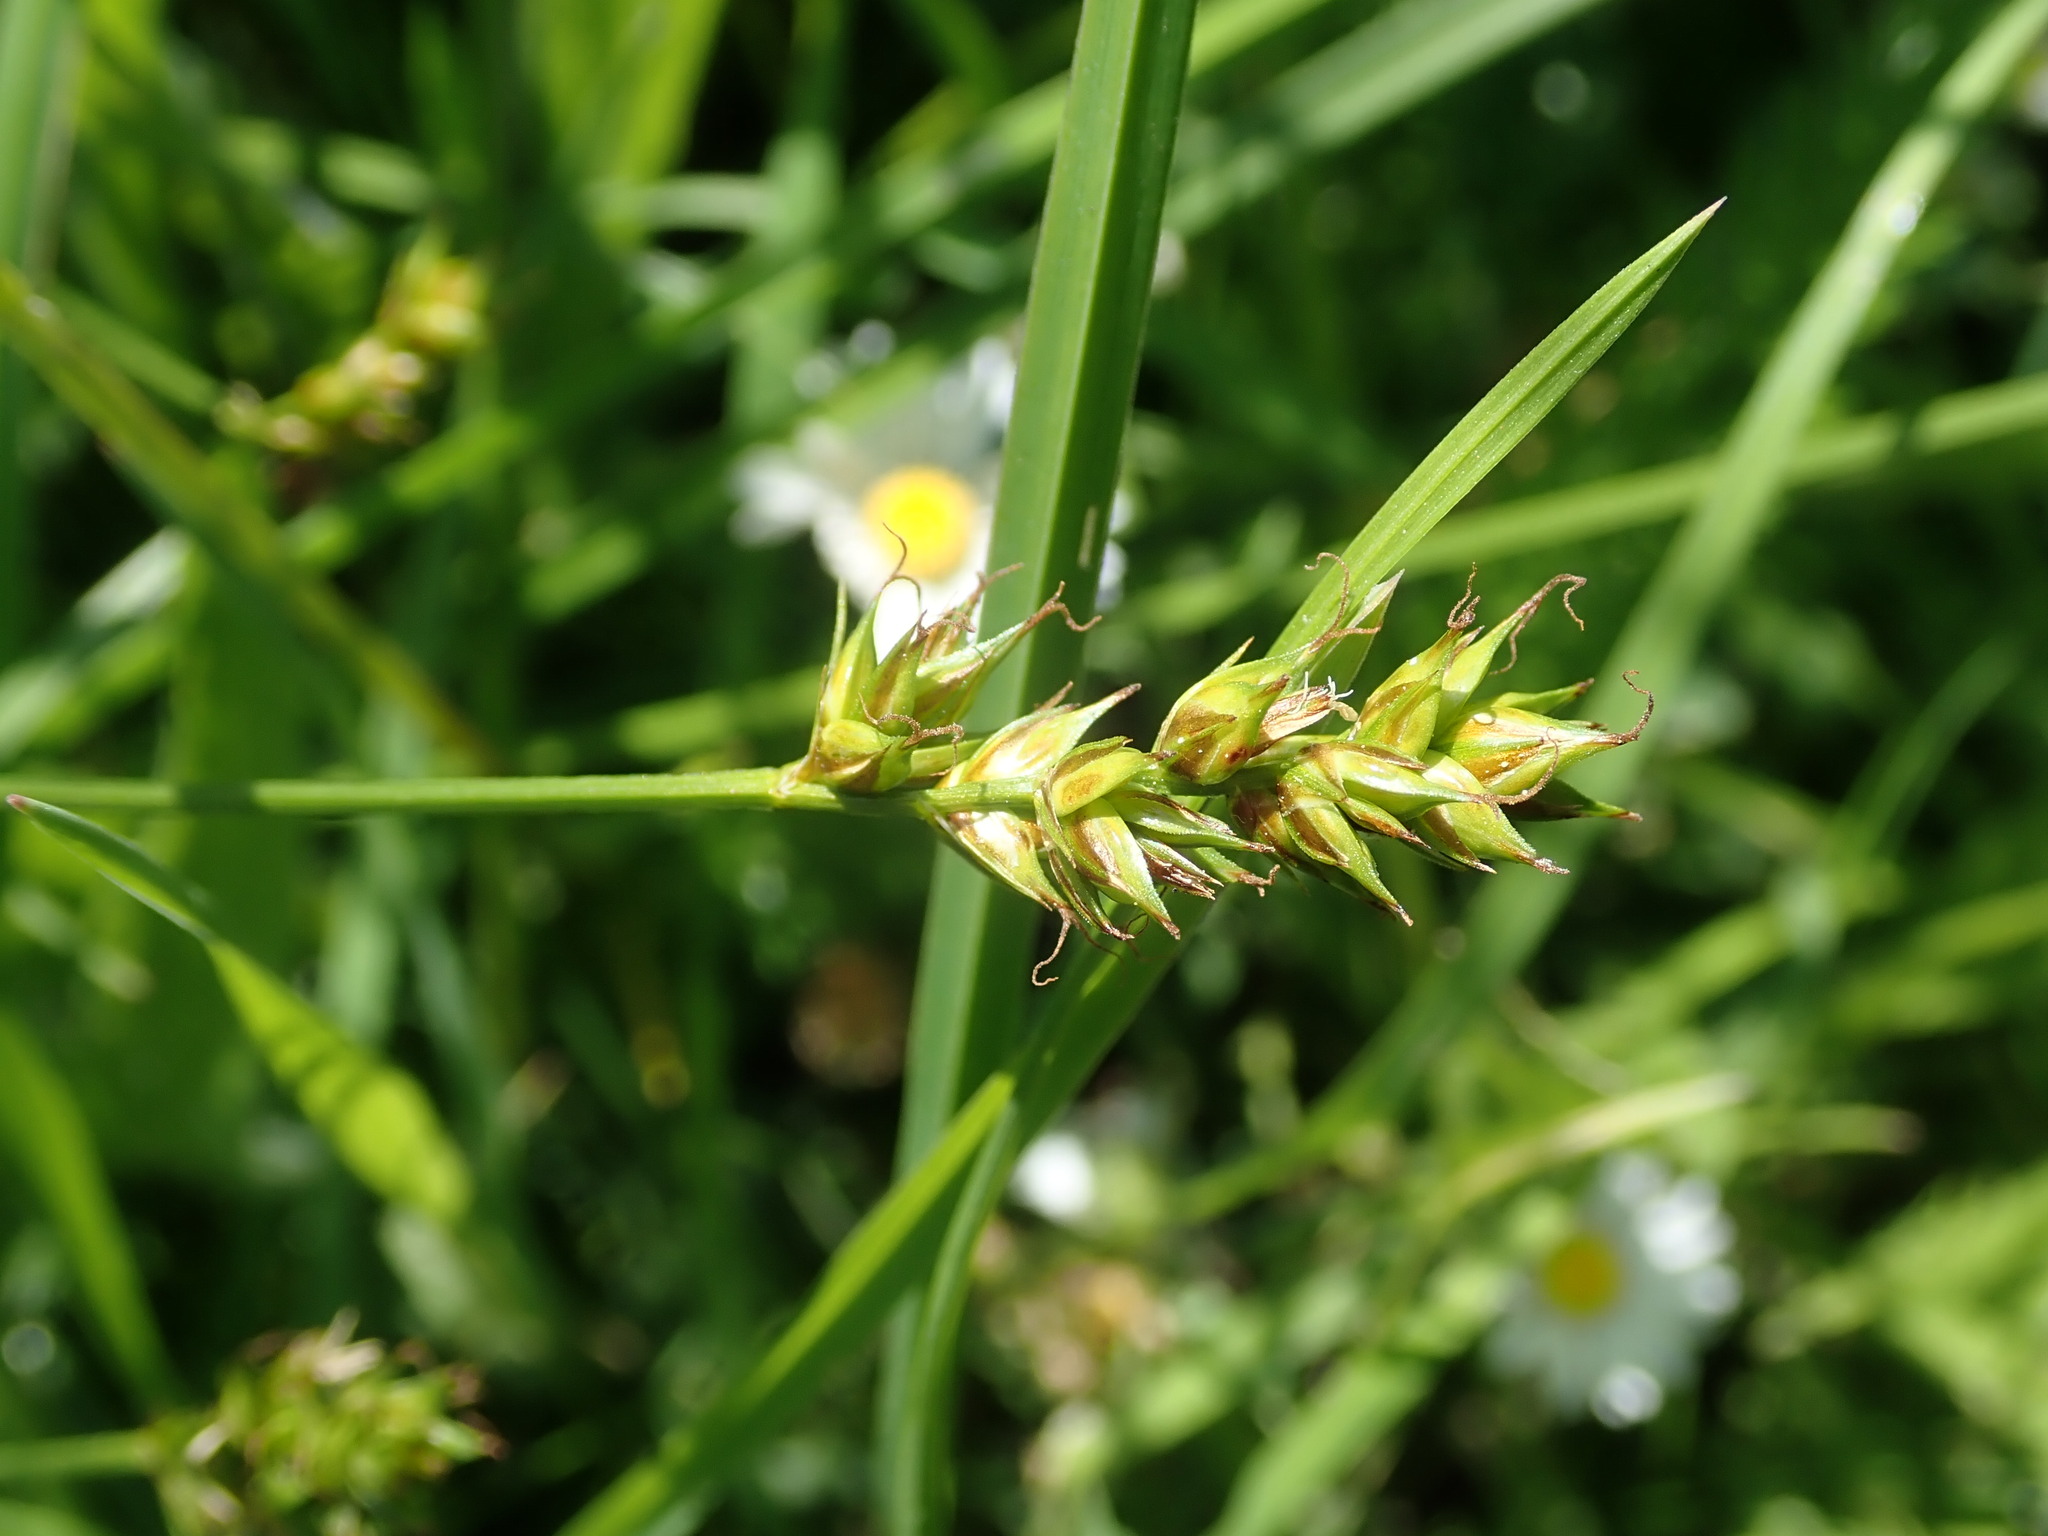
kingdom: Plantae
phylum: Tracheophyta
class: Liliopsida
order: Poales
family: Cyperaceae
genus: Carex
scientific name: Carex spicata
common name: Spiked sedge
